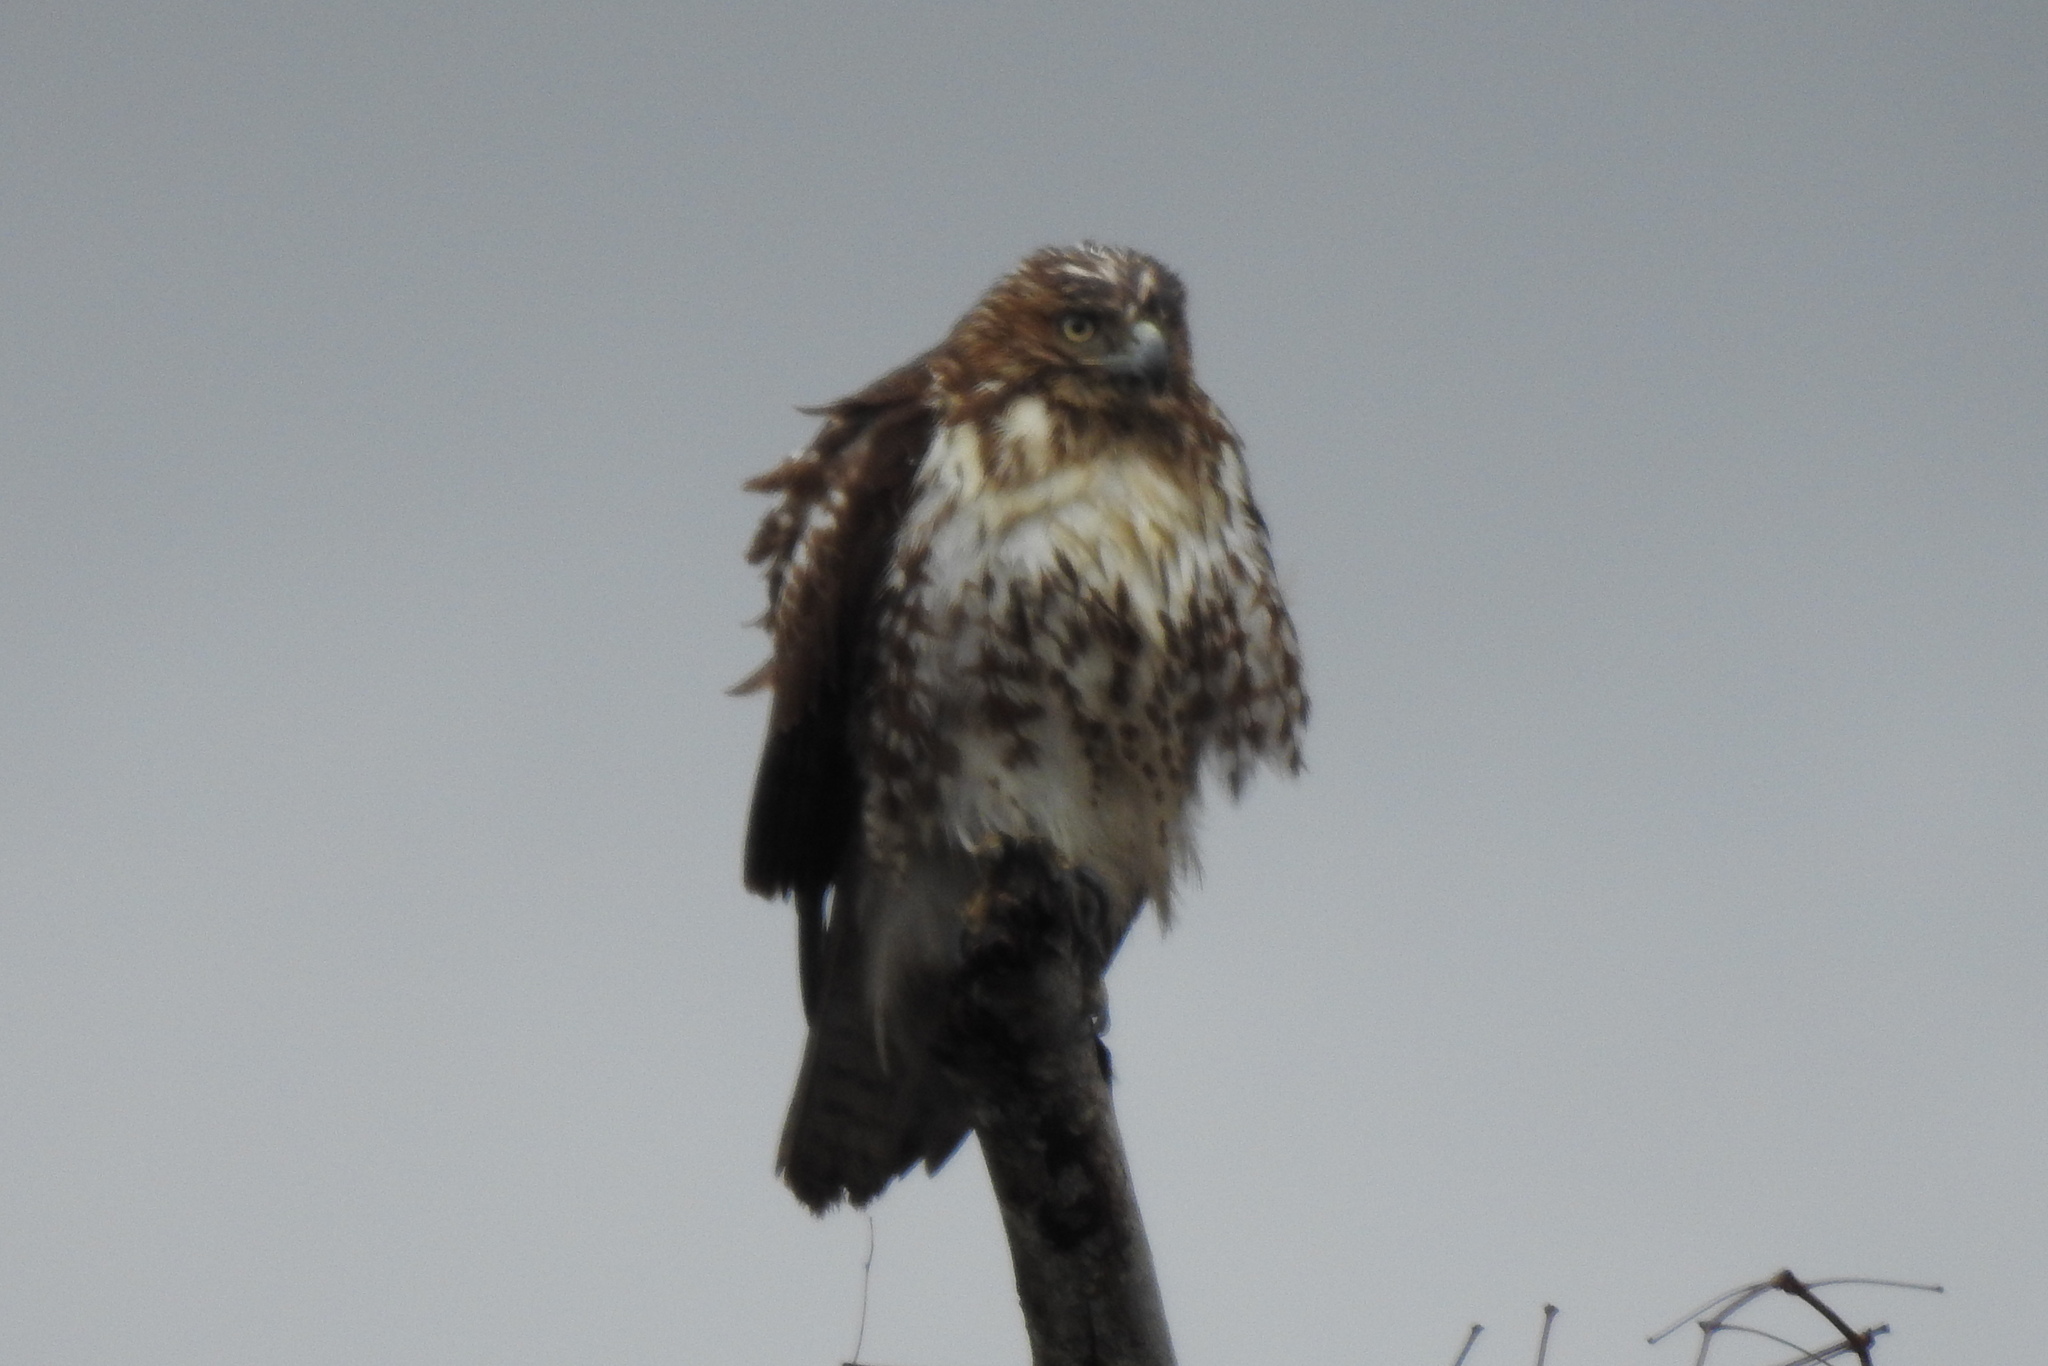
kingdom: Animalia
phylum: Chordata
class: Aves
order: Accipitriformes
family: Accipitridae
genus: Buteo
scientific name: Buteo jamaicensis
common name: Red-tailed hawk
